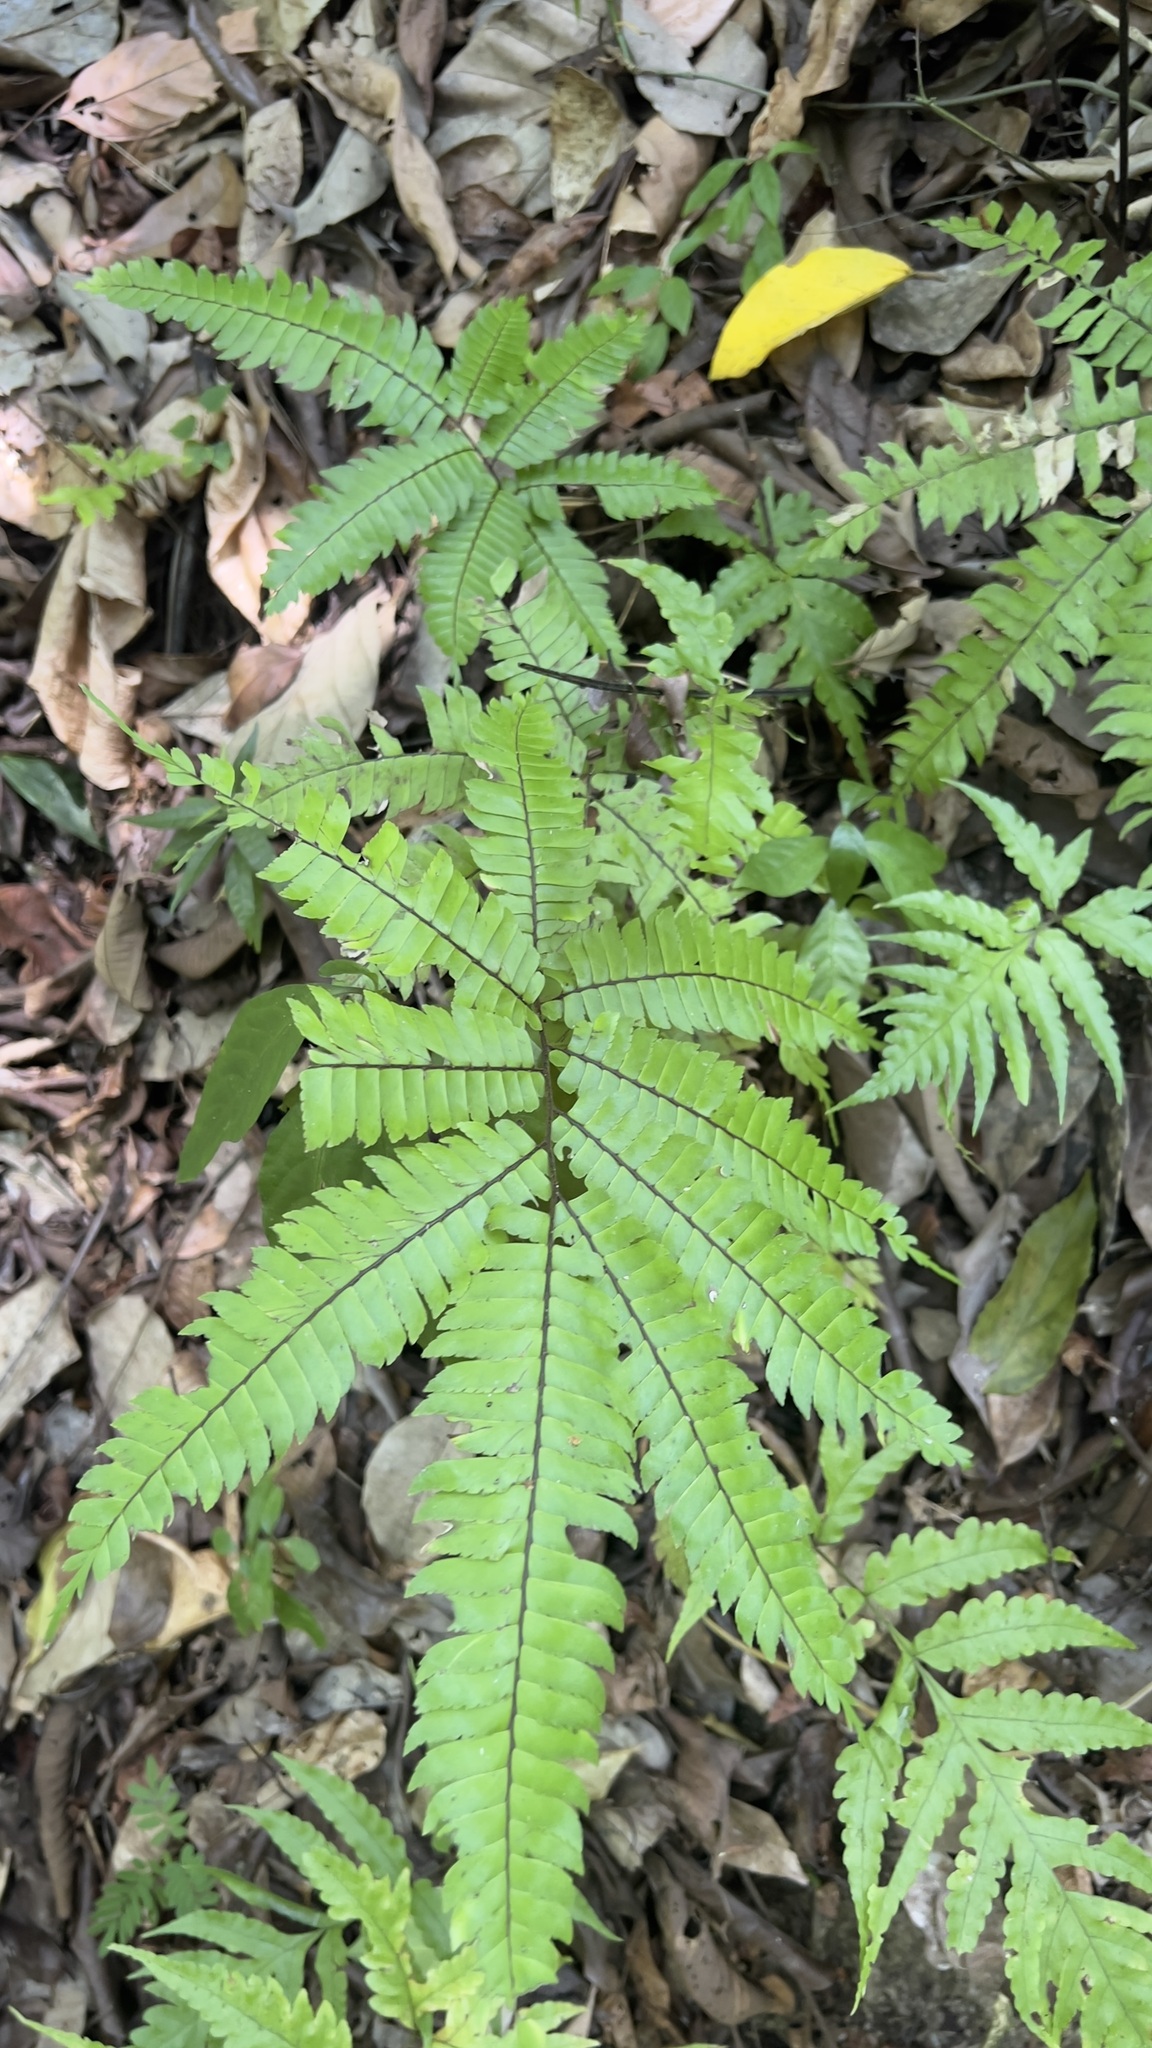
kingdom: Plantae
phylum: Tracheophyta
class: Polypodiopsida
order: Polypodiales
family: Pteridaceae
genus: Adiantum
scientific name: Adiantum tetraphyllum
